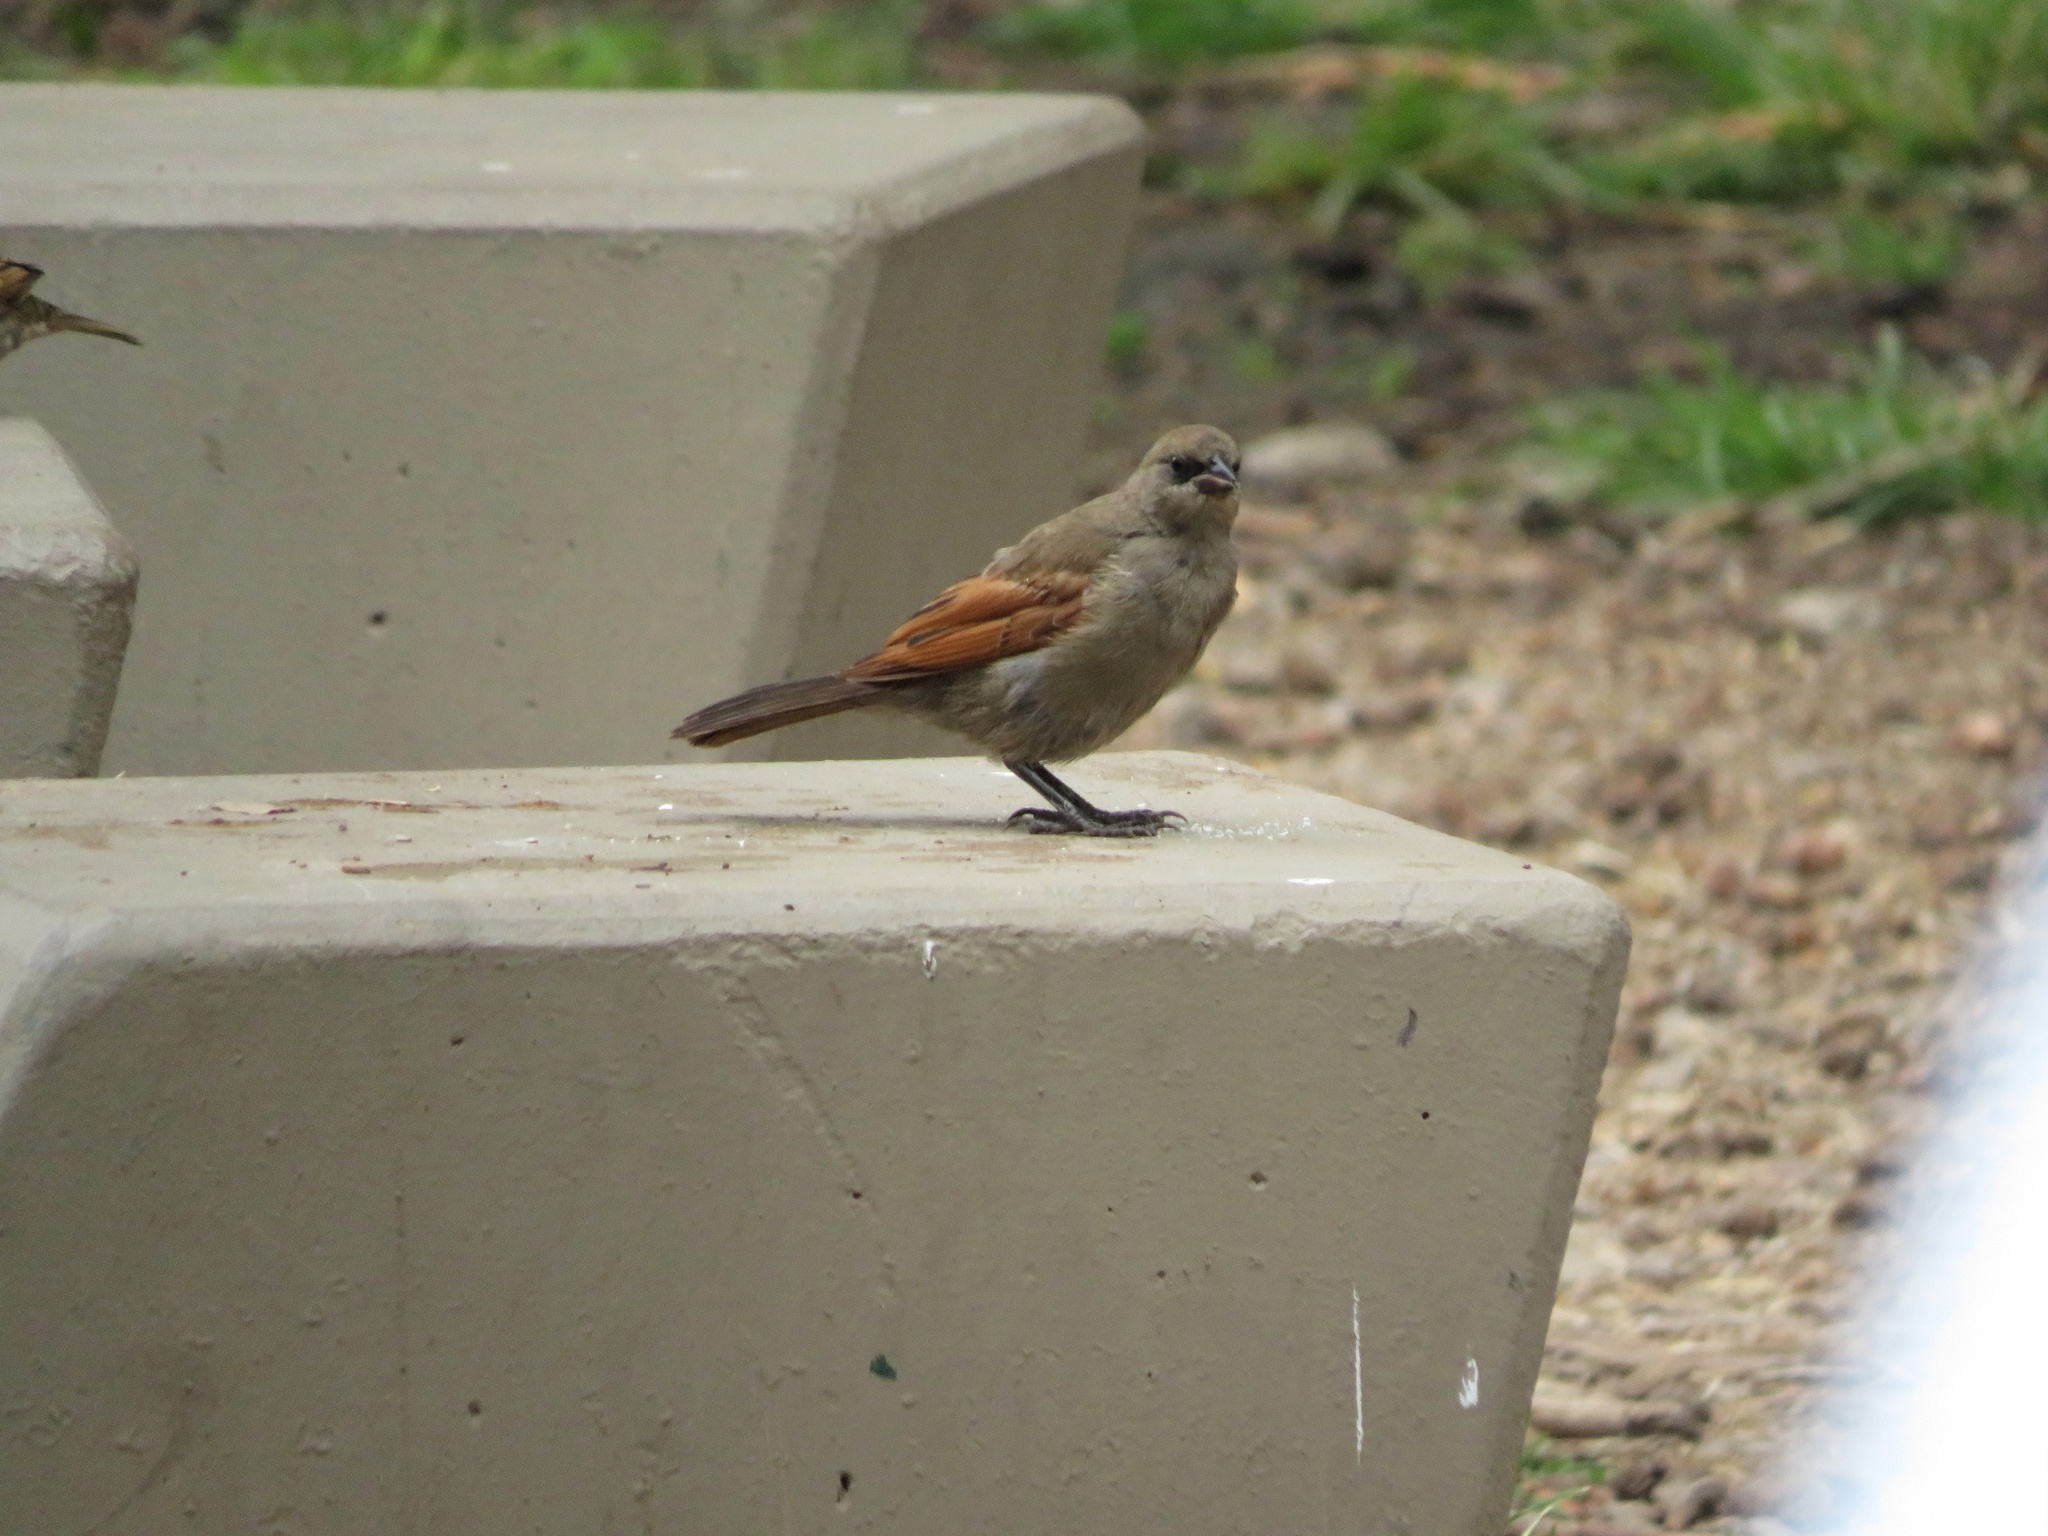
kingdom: Animalia
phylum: Chordata
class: Aves
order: Passeriformes
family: Icteridae
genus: Agelaioides
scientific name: Agelaioides badius
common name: Baywing
